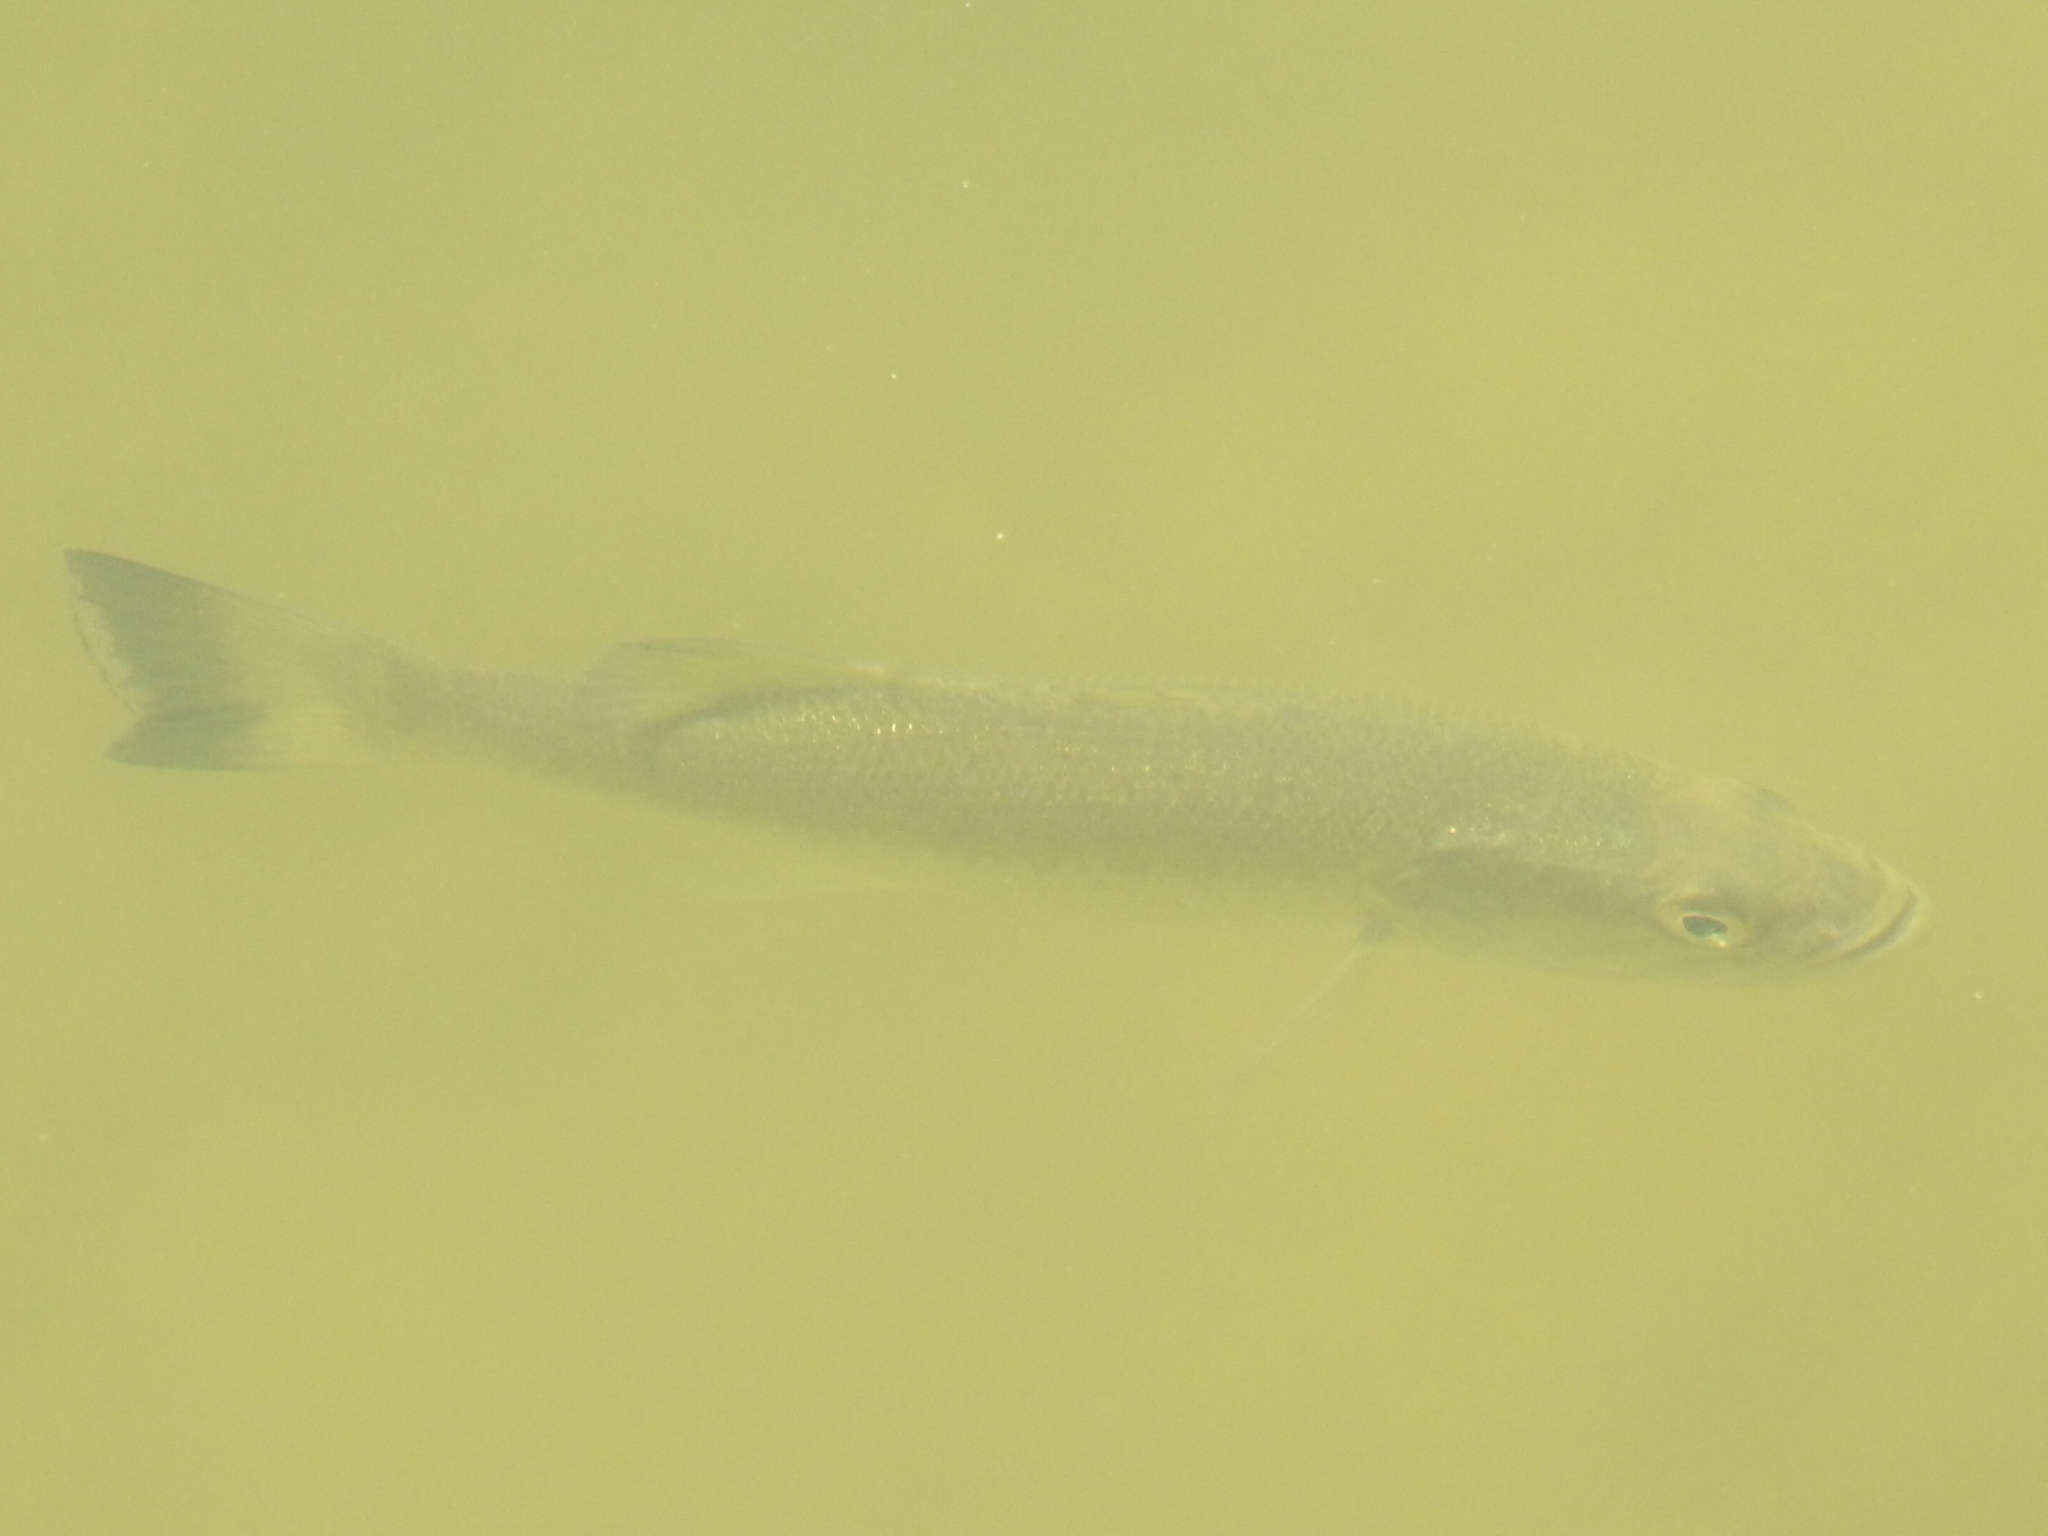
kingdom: Animalia
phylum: Chordata
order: Perciformes
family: Centrarchidae
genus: Micropterus
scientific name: Micropterus
